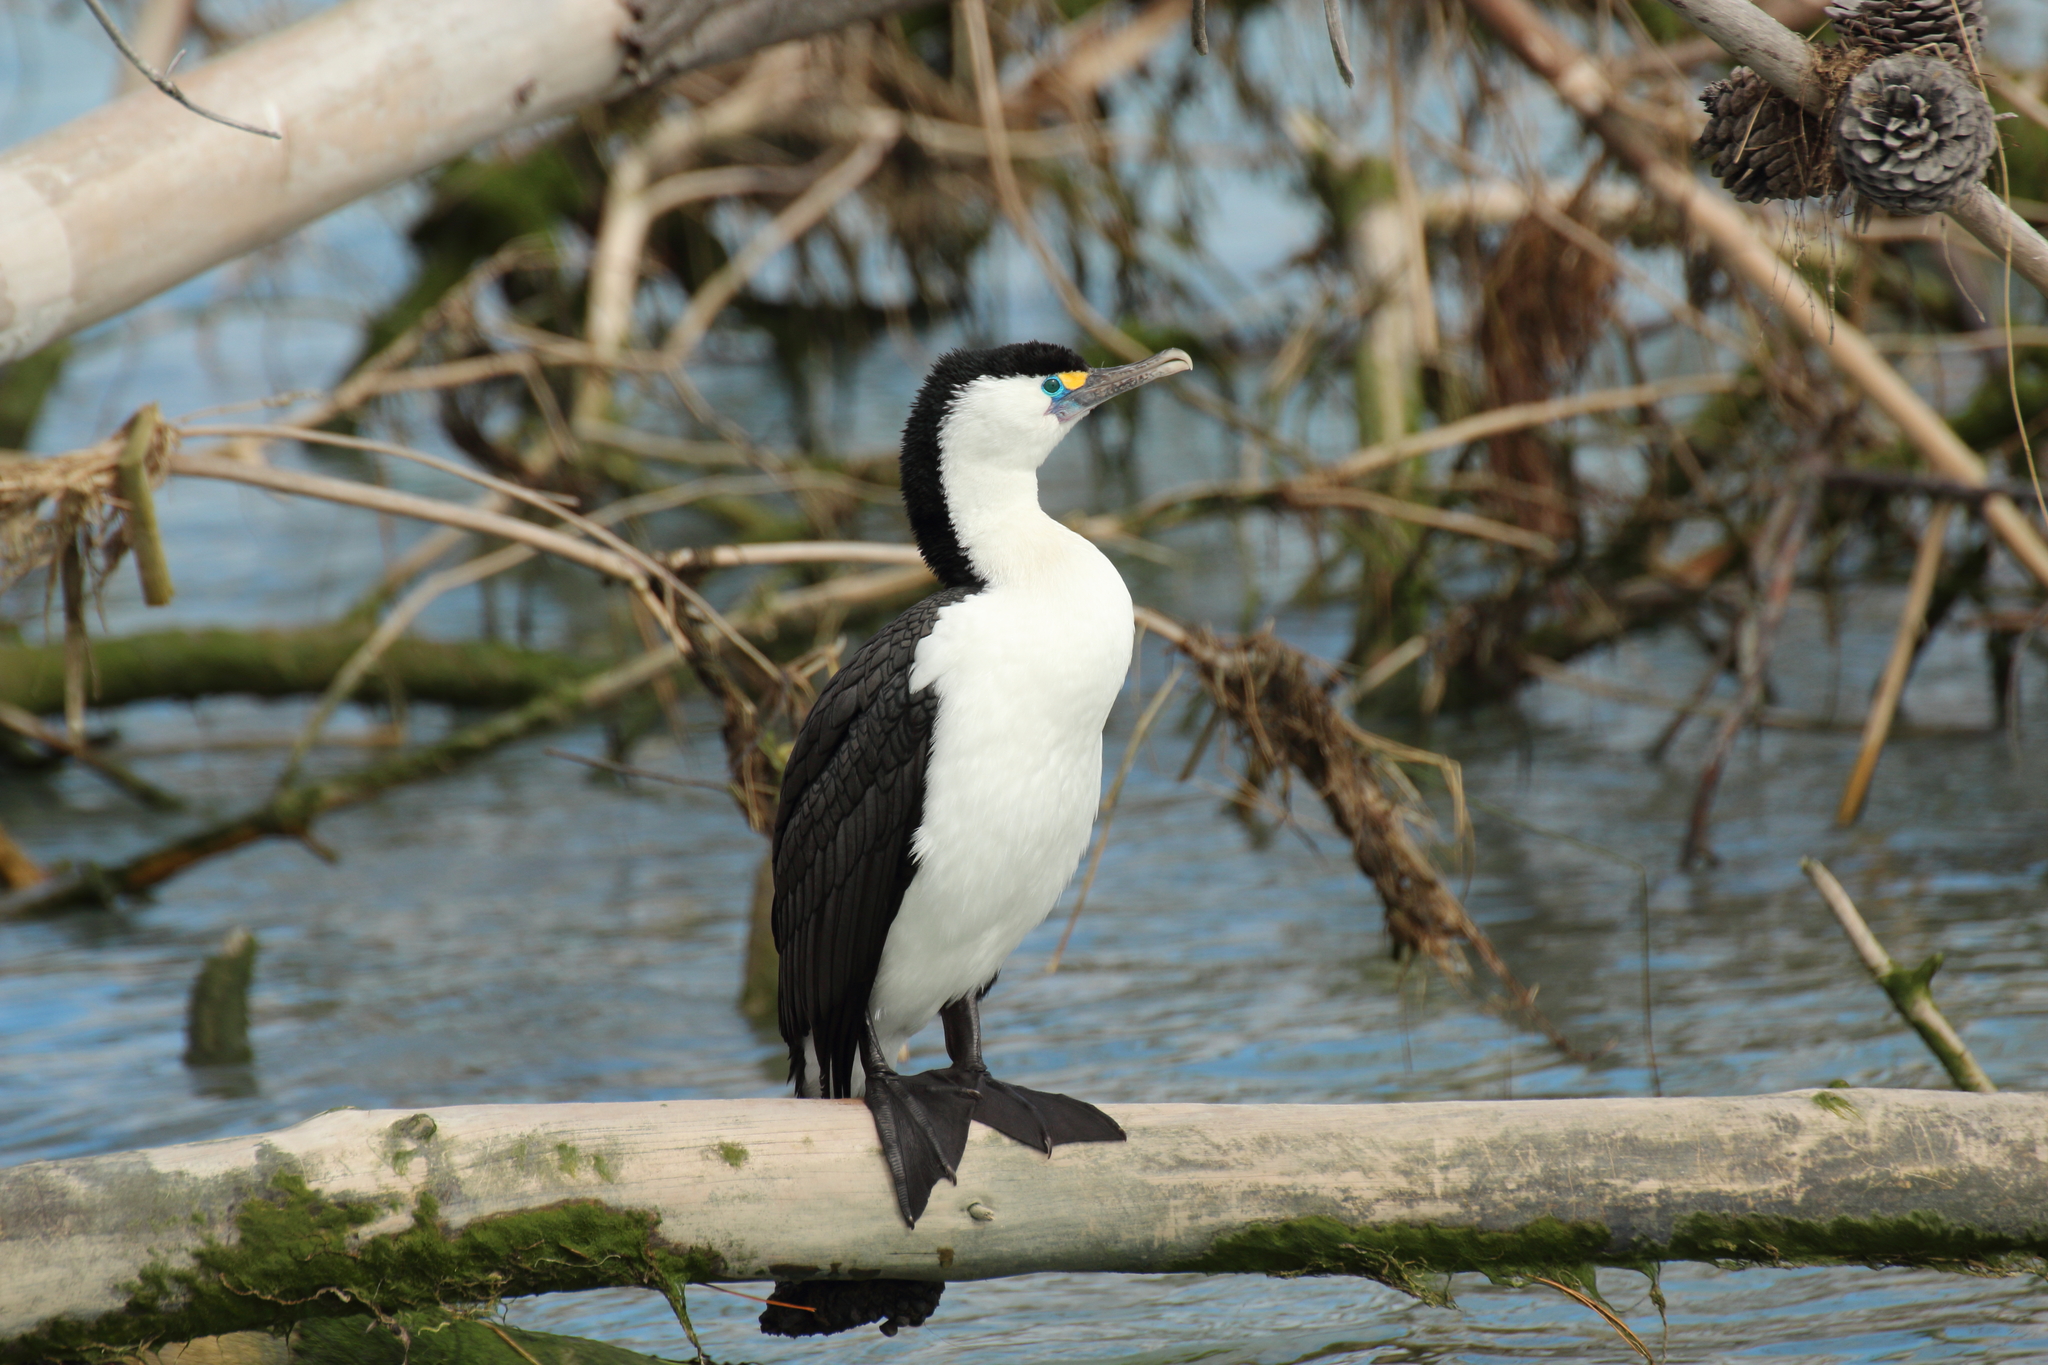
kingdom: Animalia
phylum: Chordata
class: Aves
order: Suliformes
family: Phalacrocoracidae
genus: Phalacrocorax
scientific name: Phalacrocorax varius
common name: Pied cormorant
